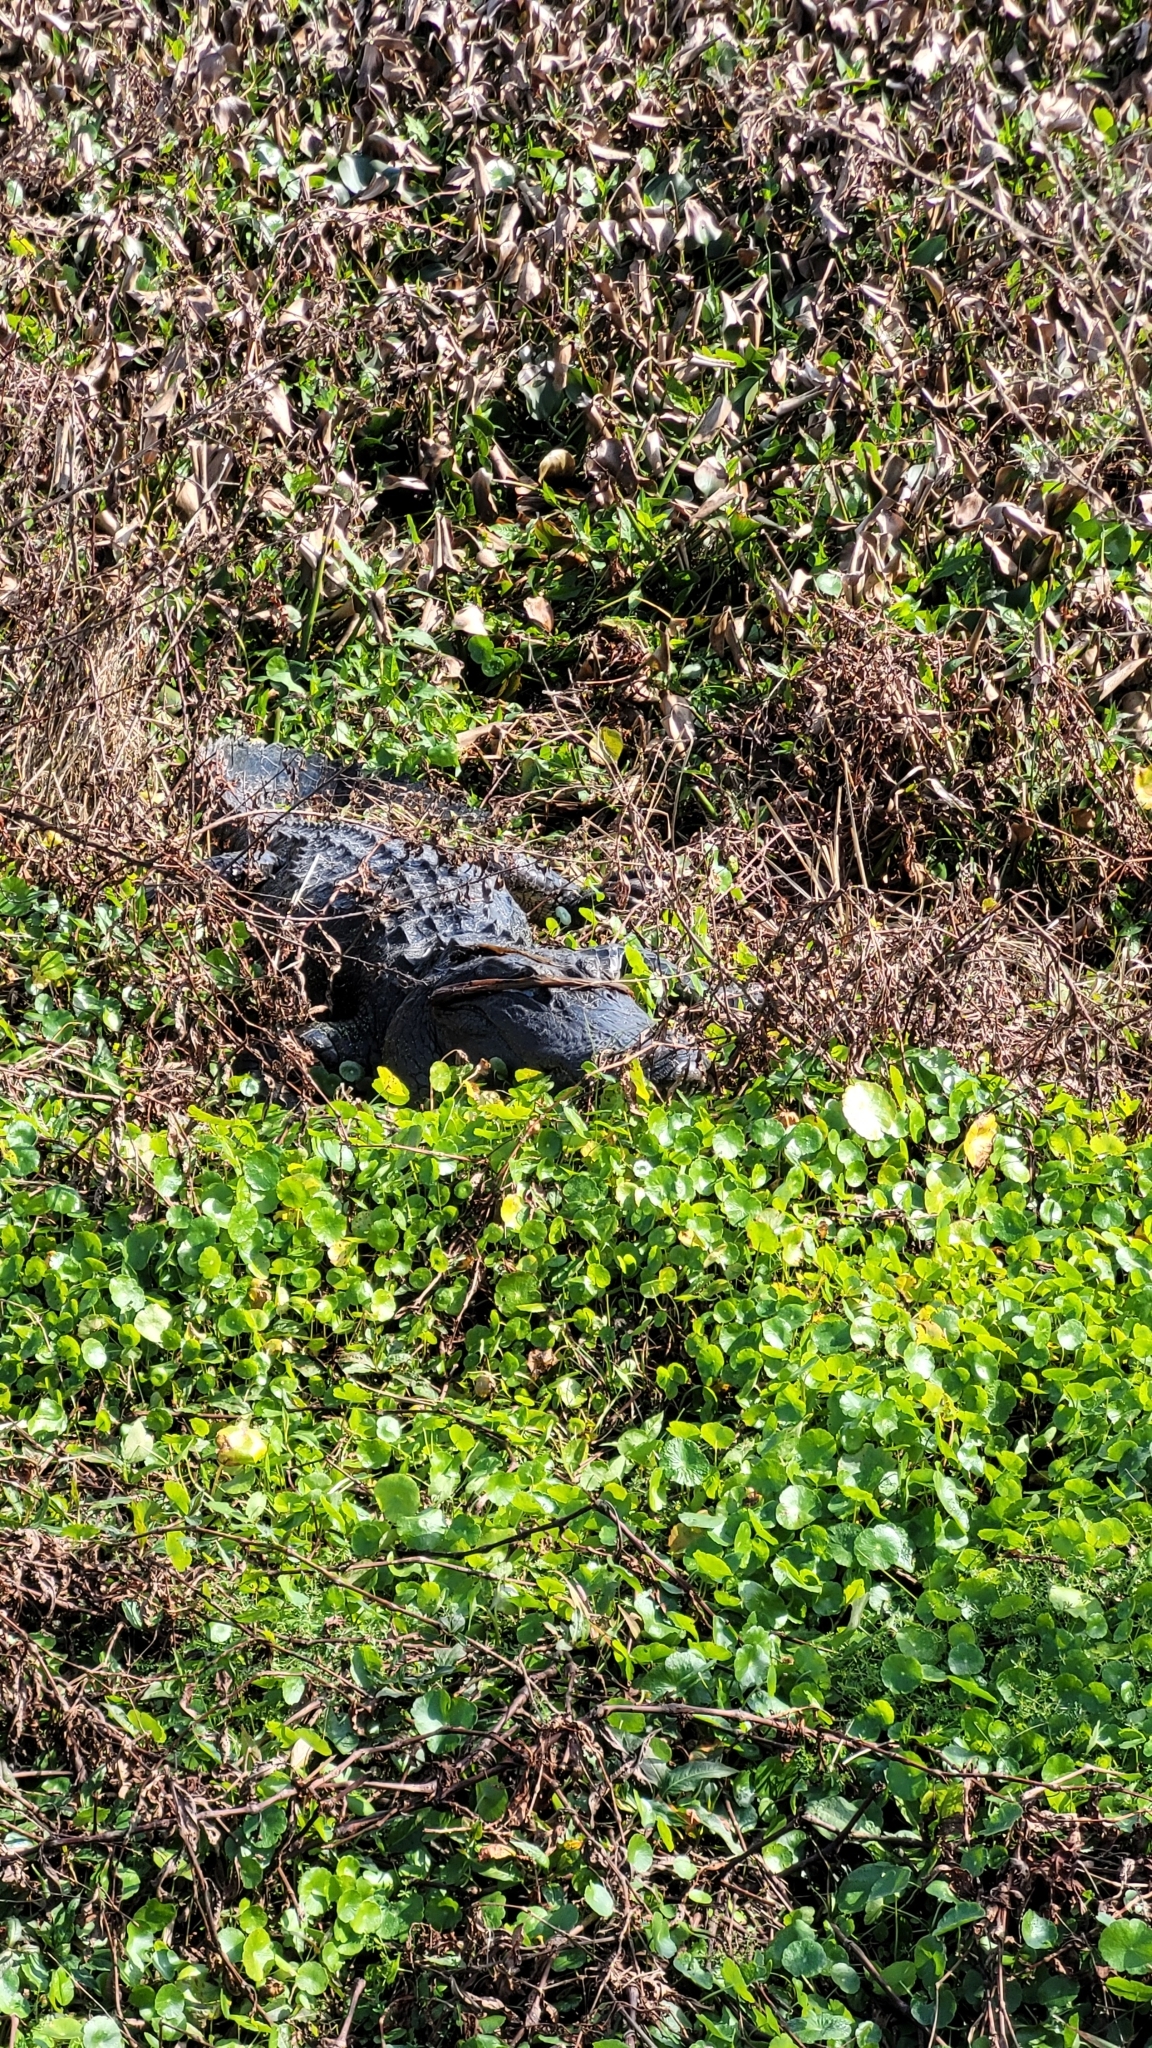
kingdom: Animalia
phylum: Chordata
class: Crocodylia
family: Alligatoridae
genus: Alligator
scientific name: Alligator mississippiensis
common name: American alligator
